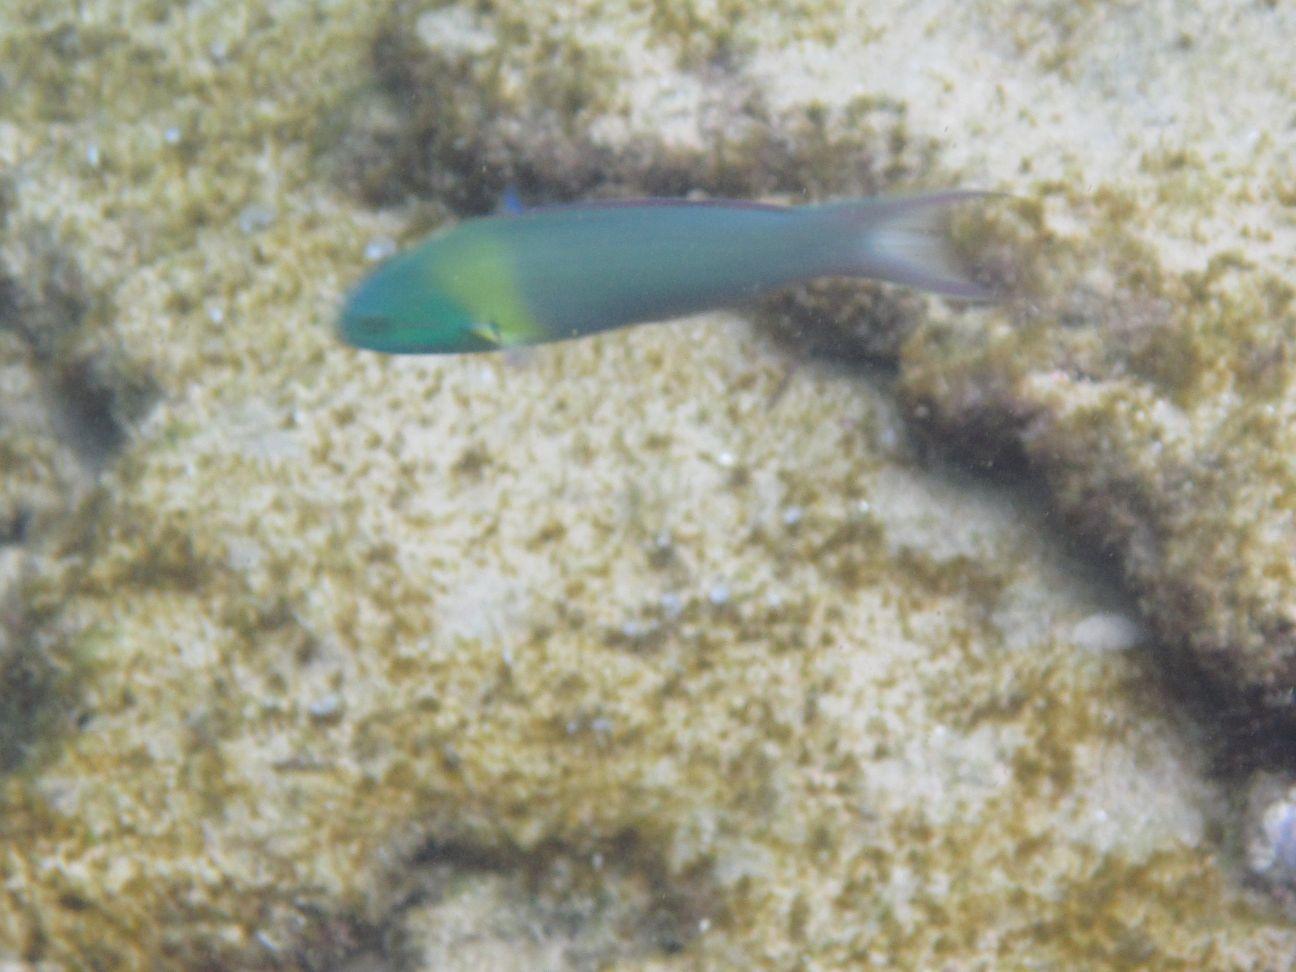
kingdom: Animalia
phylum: Chordata
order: Perciformes
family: Labridae
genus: Thalassoma
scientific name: Thalassoma amblycephalum
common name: Bluehead wrasse
